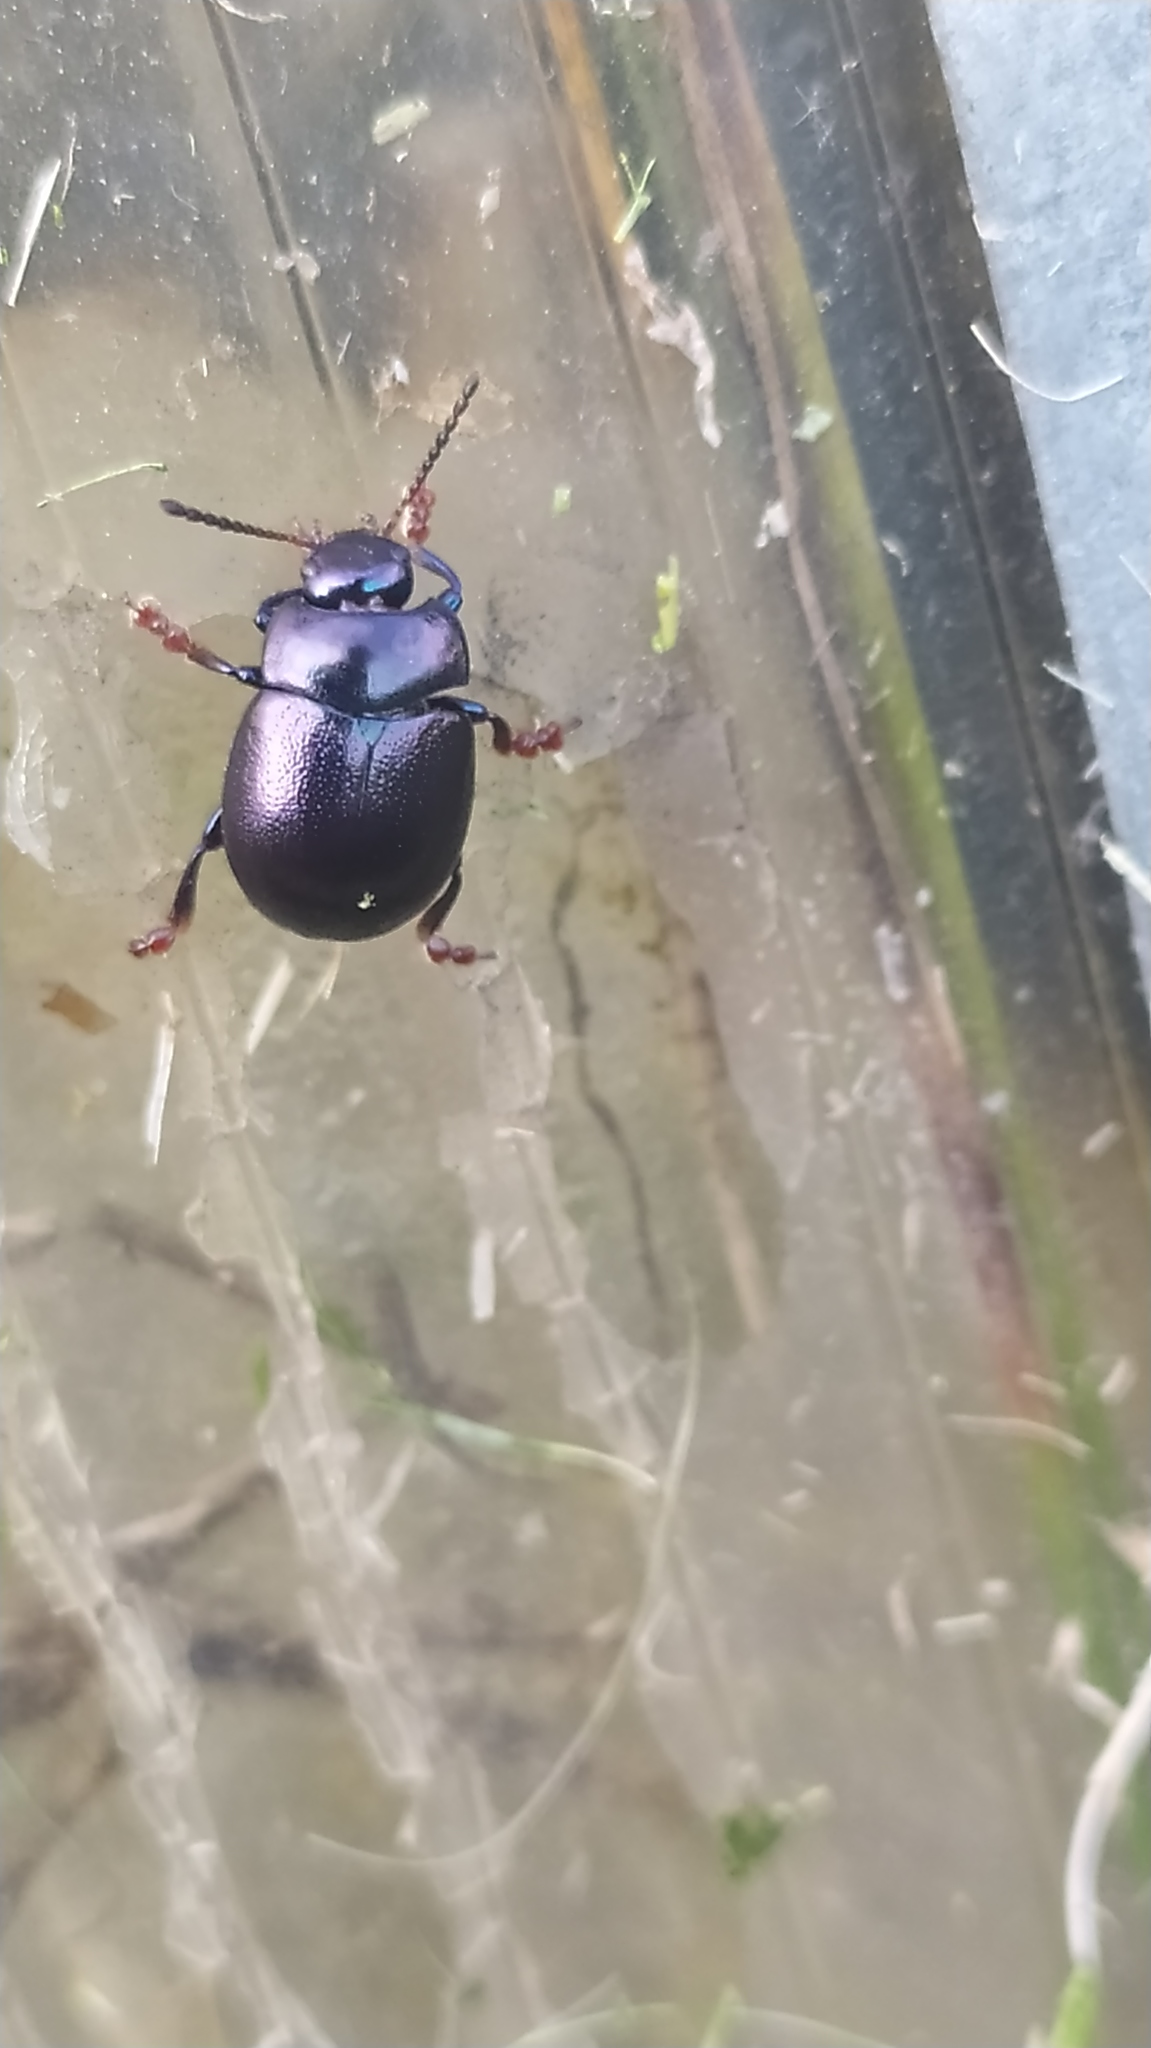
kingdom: Animalia
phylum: Arthropoda
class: Insecta
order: Coleoptera
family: Chrysomelidae
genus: Chrysolina
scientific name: Chrysolina sturmi
